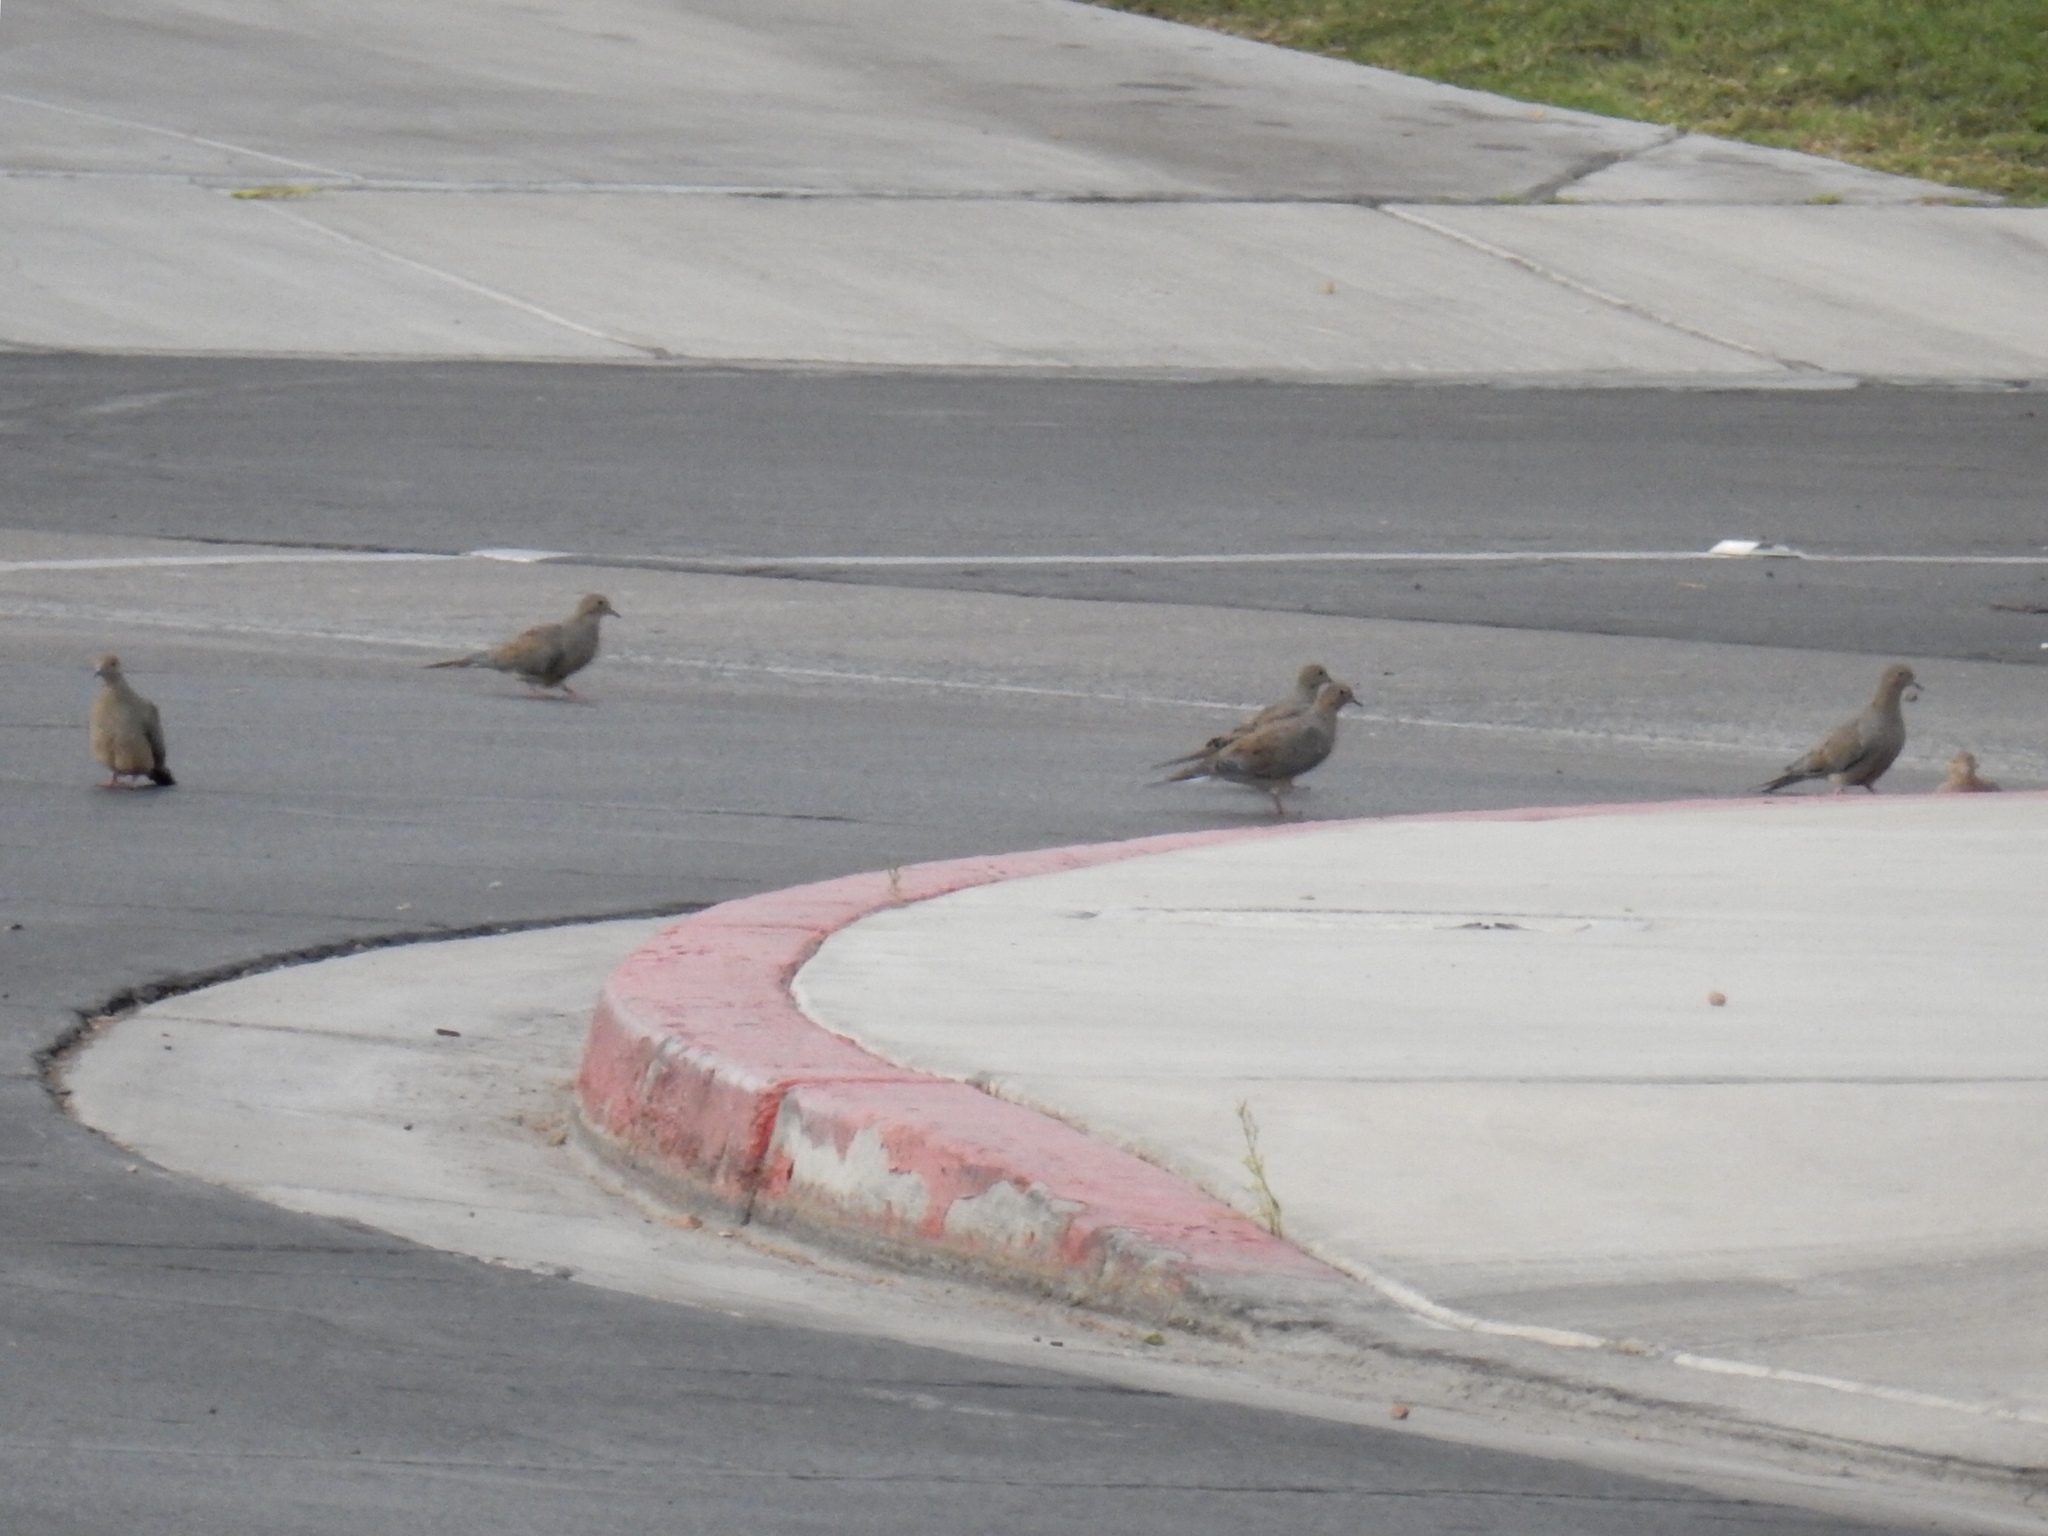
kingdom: Animalia
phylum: Chordata
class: Aves
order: Columbiformes
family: Columbidae
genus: Zenaida
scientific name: Zenaida macroura
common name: Mourning dove
